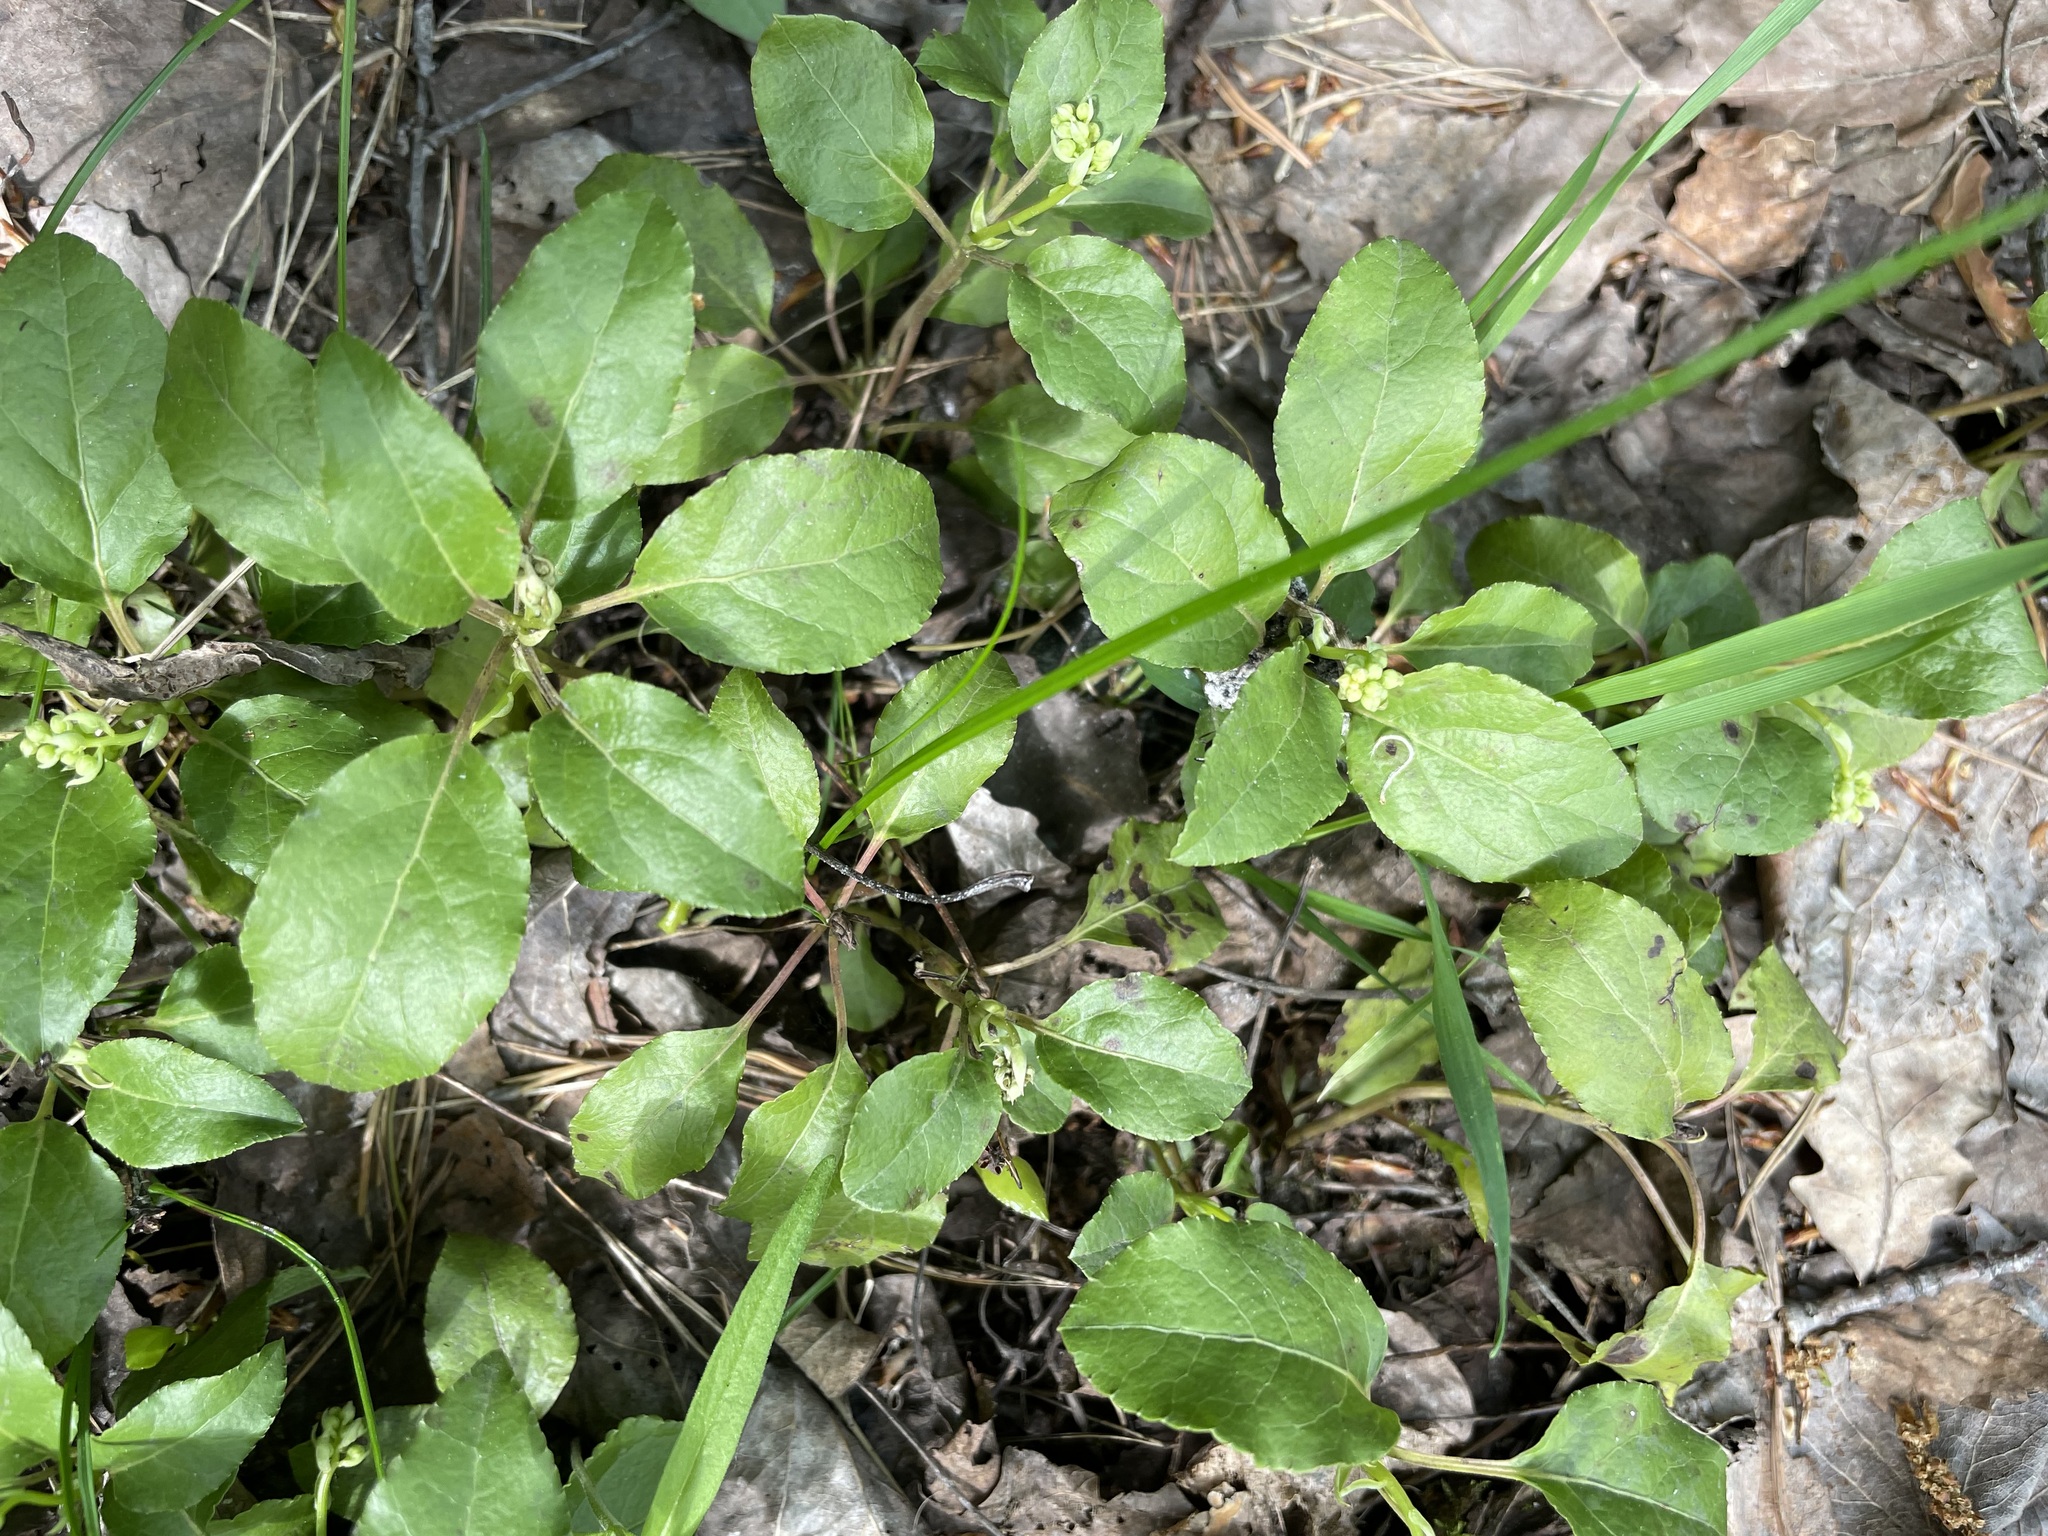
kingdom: Plantae
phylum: Tracheophyta
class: Magnoliopsida
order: Ericales
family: Ericaceae
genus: Orthilia
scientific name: Orthilia secunda
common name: One-sided orthilia
